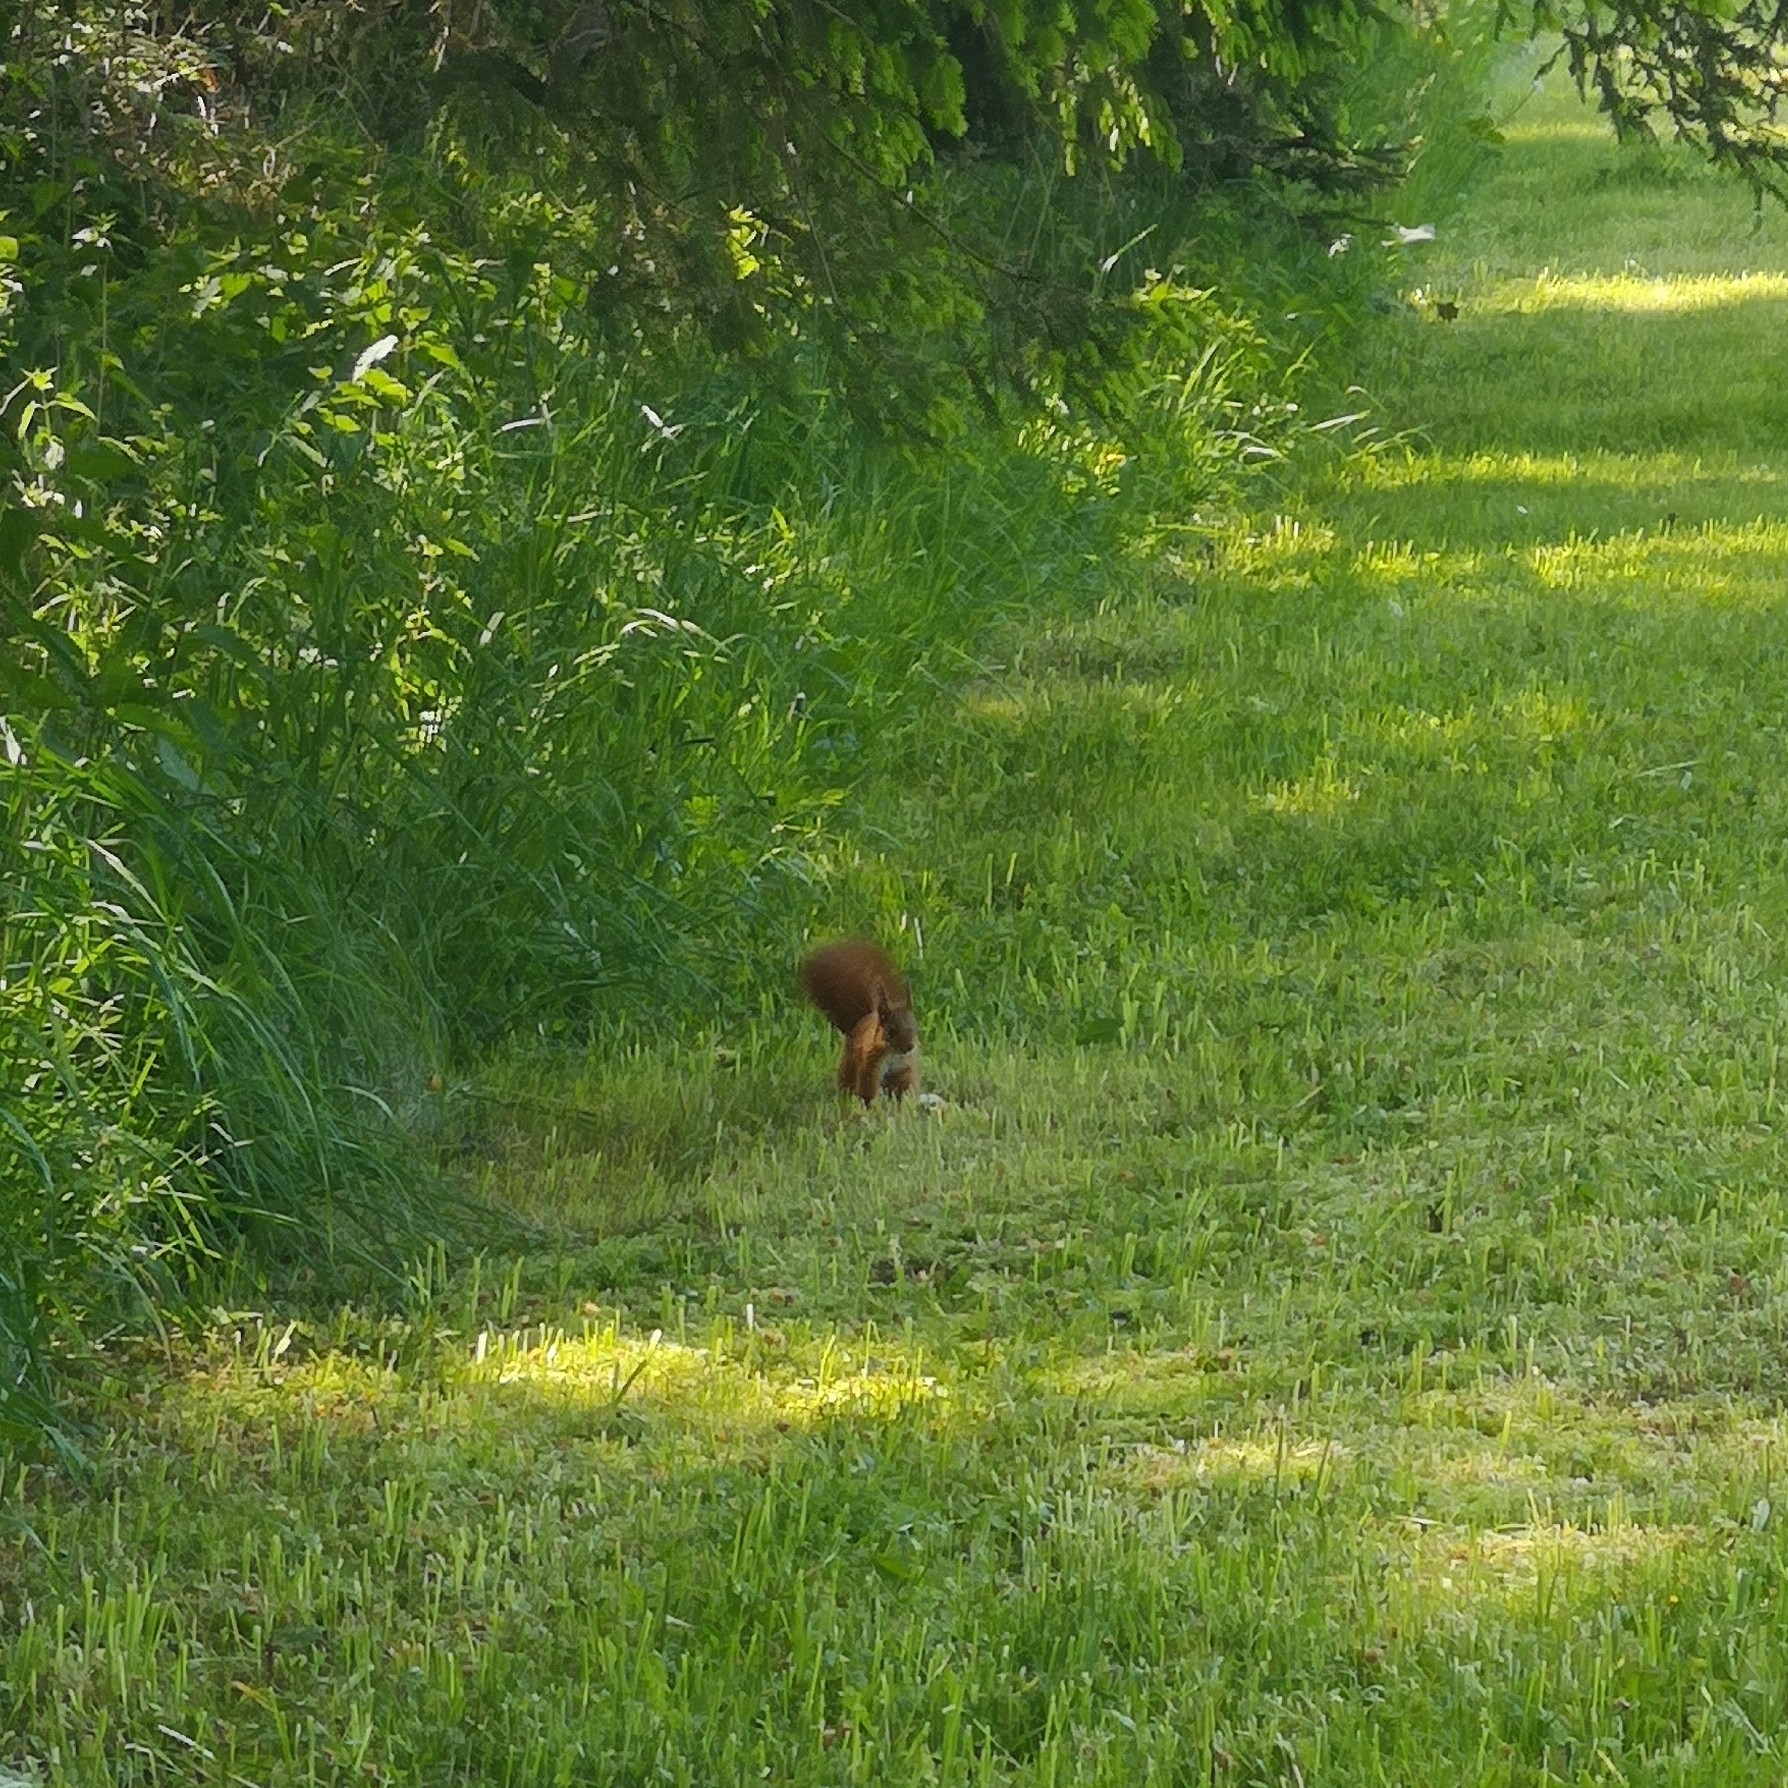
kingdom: Animalia
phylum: Chordata
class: Mammalia
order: Rodentia
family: Sciuridae
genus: Sciurus
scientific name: Sciurus vulgaris
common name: Eurasian red squirrel
